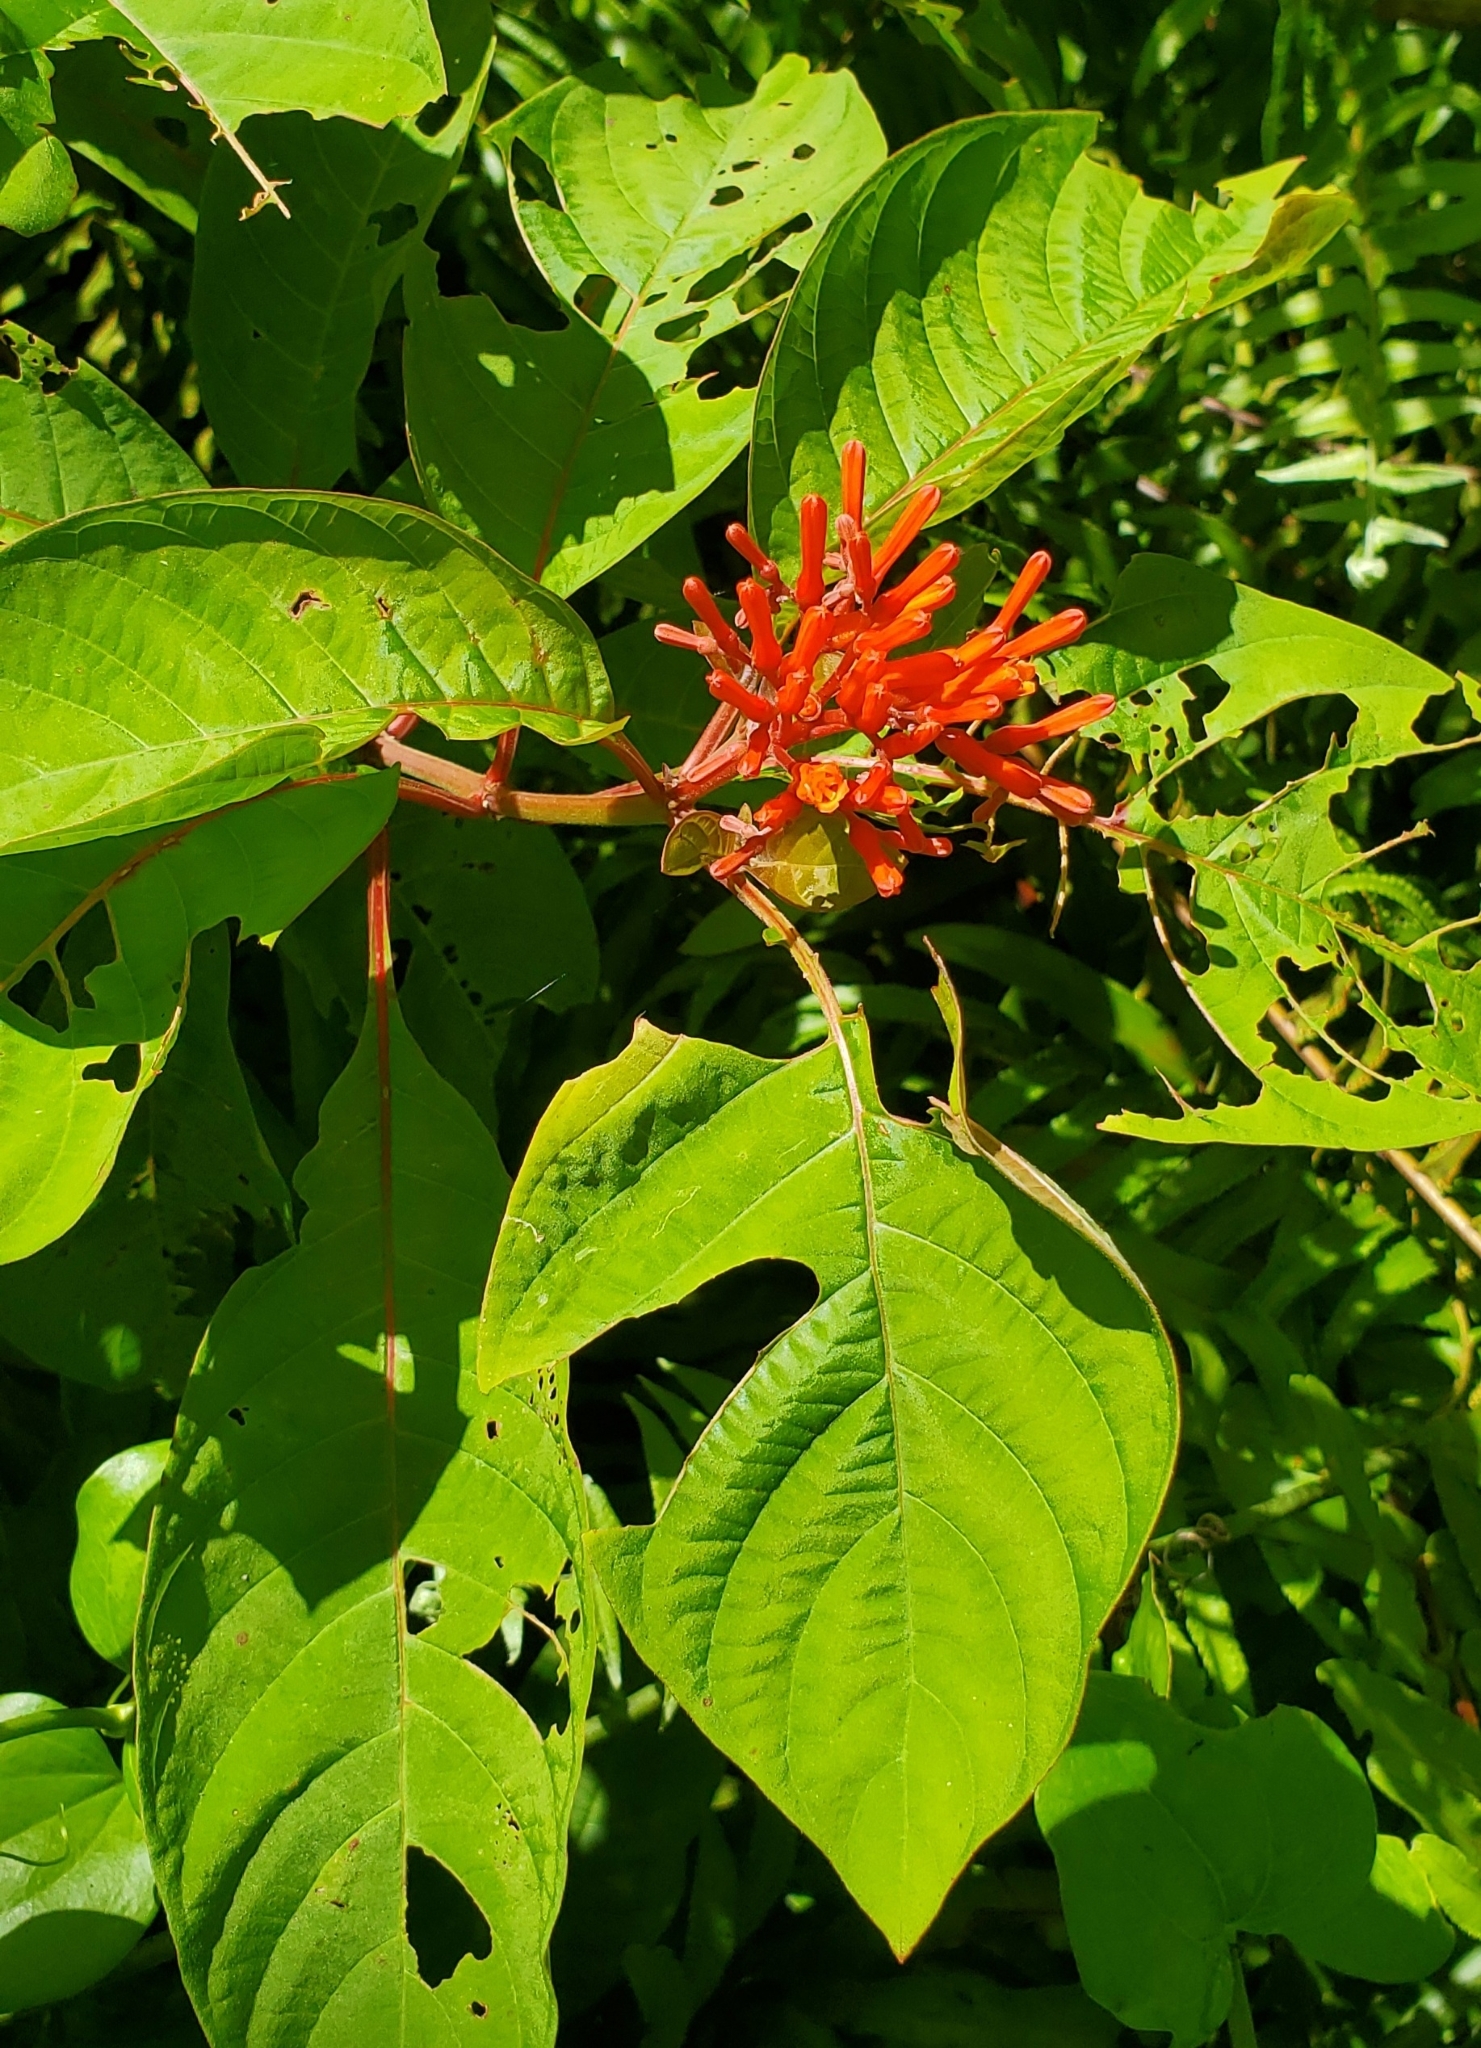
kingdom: Plantae
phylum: Tracheophyta
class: Magnoliopsida
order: Gentianales
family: Rubiaceae
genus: Hamelia
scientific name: Hamelia patens
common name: Redhead
